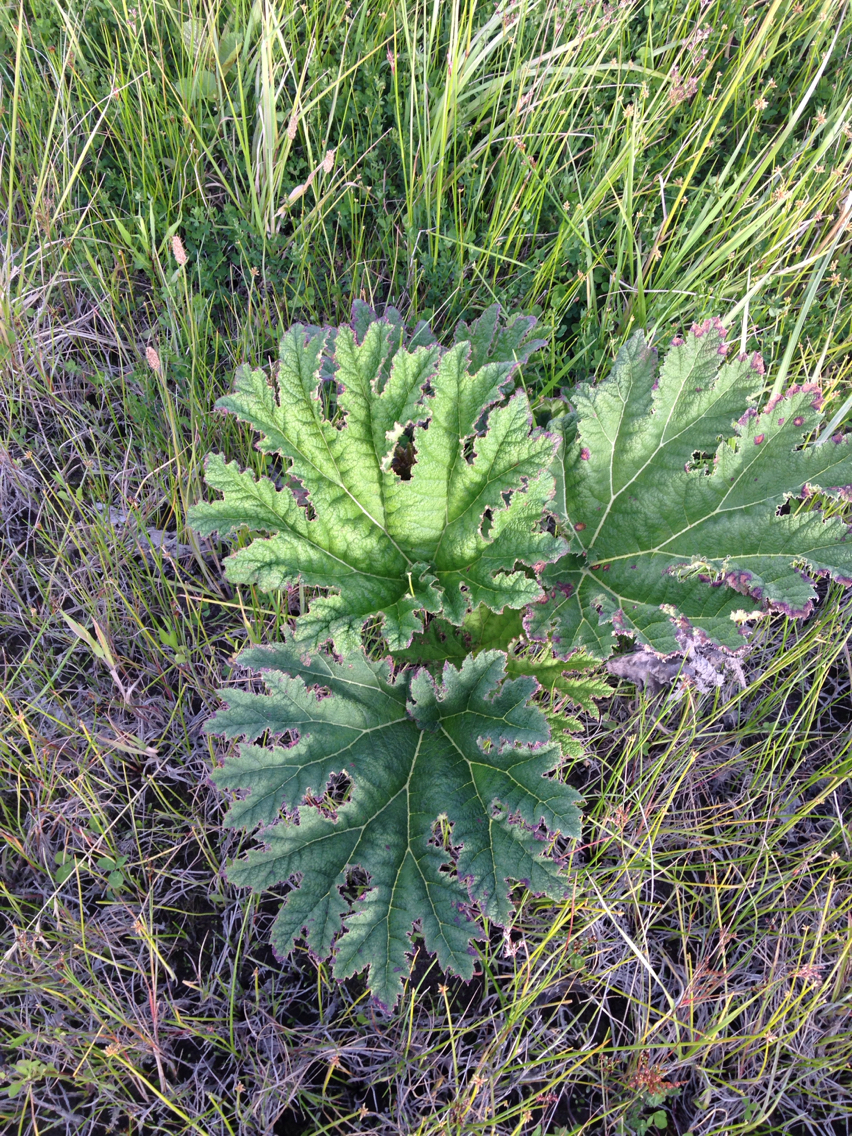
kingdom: Plantae
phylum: Tracheophyta
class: Magnoliopsida
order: Gunnerales
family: Gunneraceae
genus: Gunnera
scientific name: Gunnera tinctoria
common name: Giant-rhubarb
